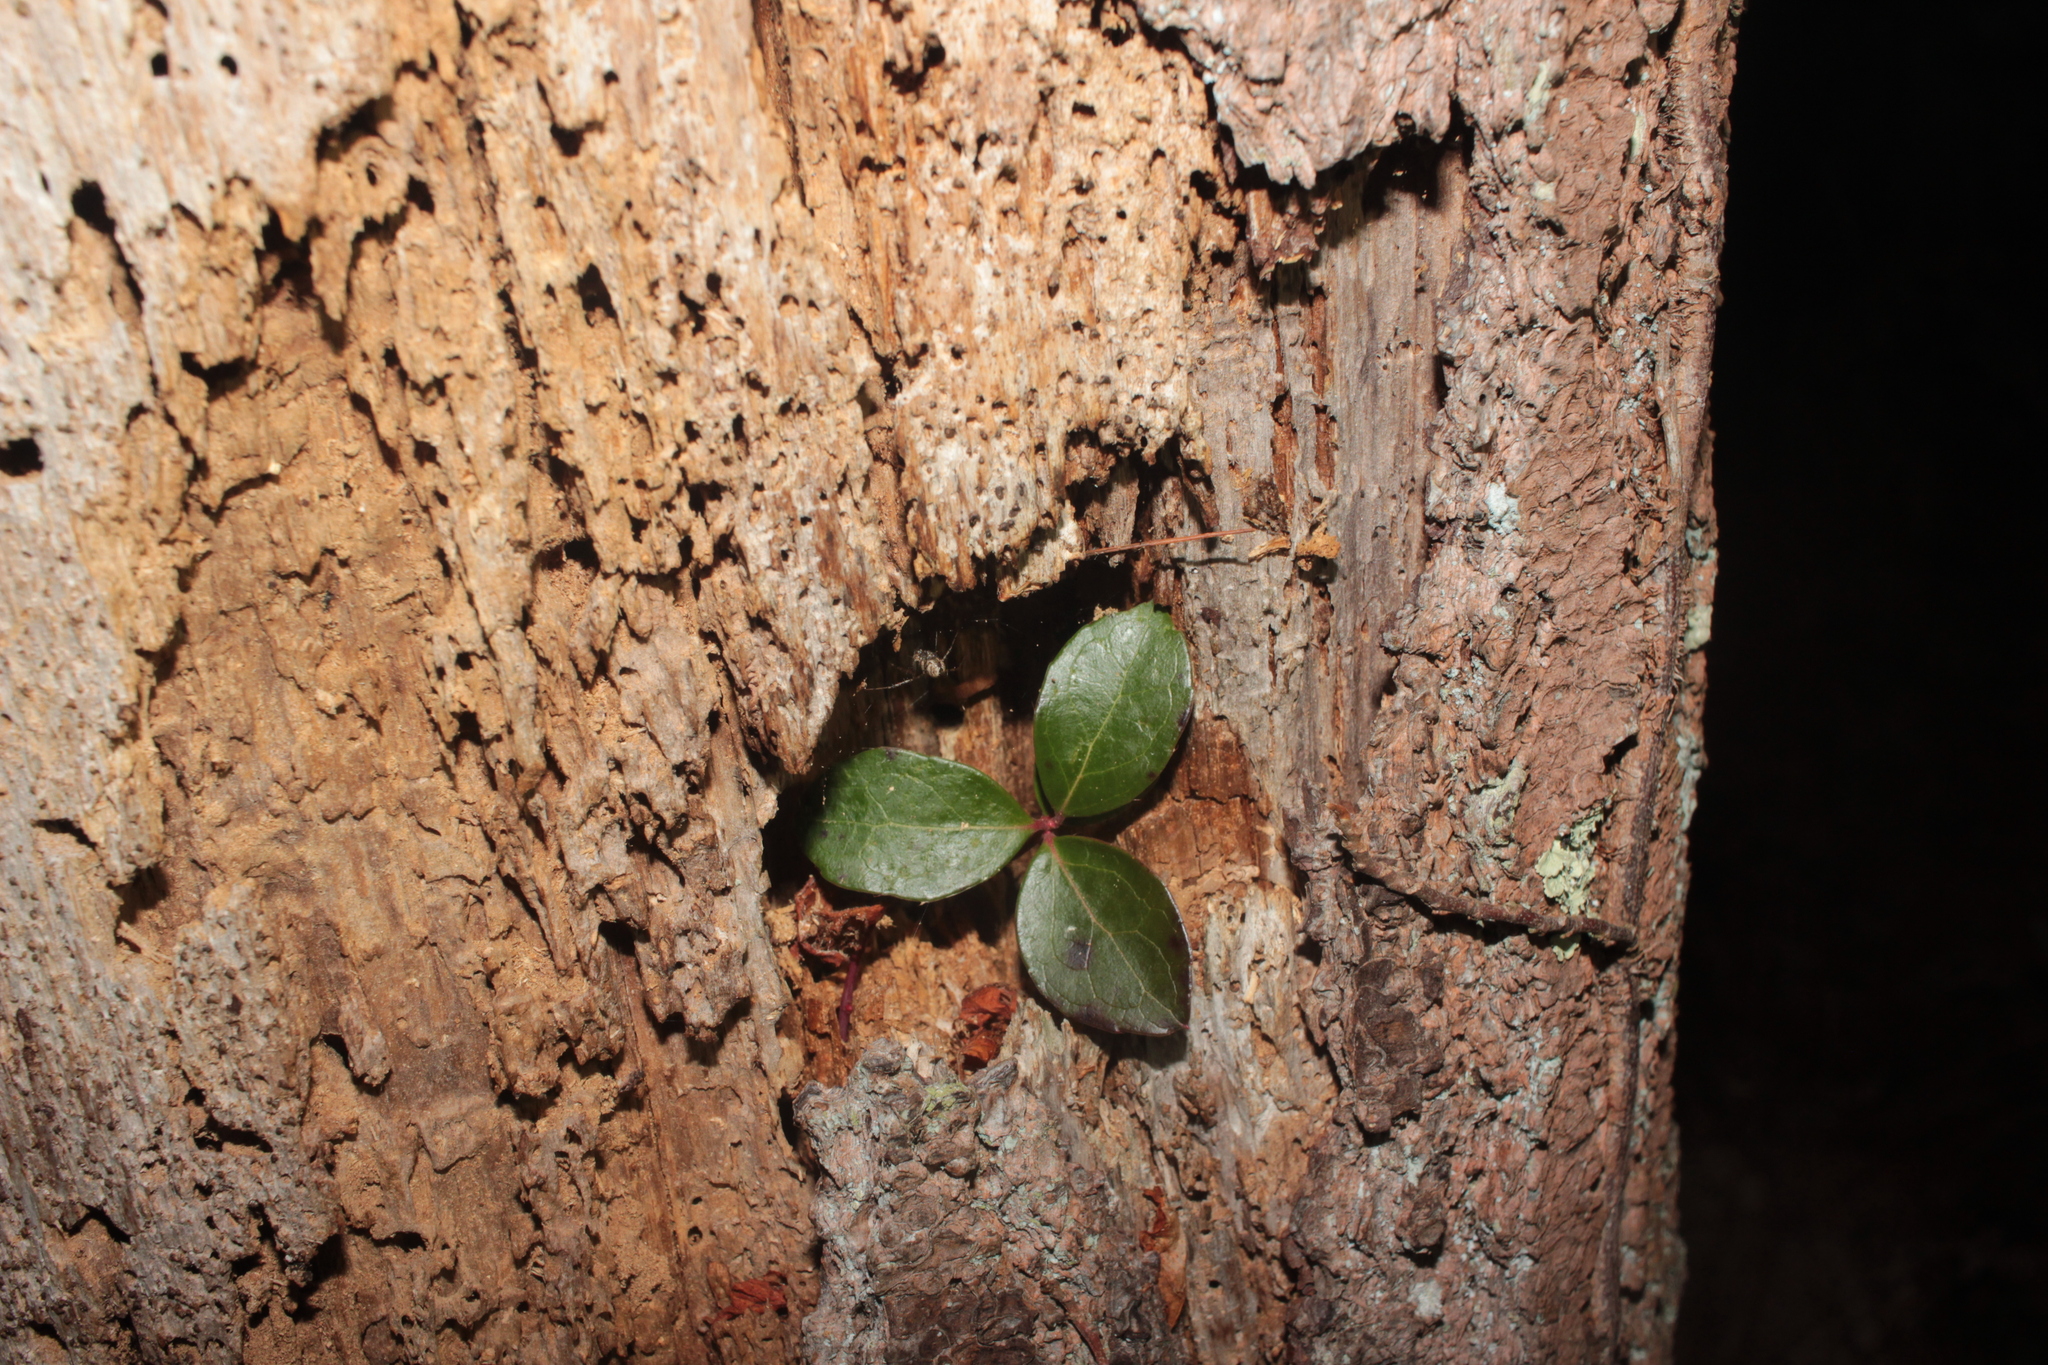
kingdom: Plantae
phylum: Tracheophyta
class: Magnoliopsida
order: Ericales
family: Ericaceae
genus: Gaultheria
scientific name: Gaultheria procumbens
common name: Checkerberry
